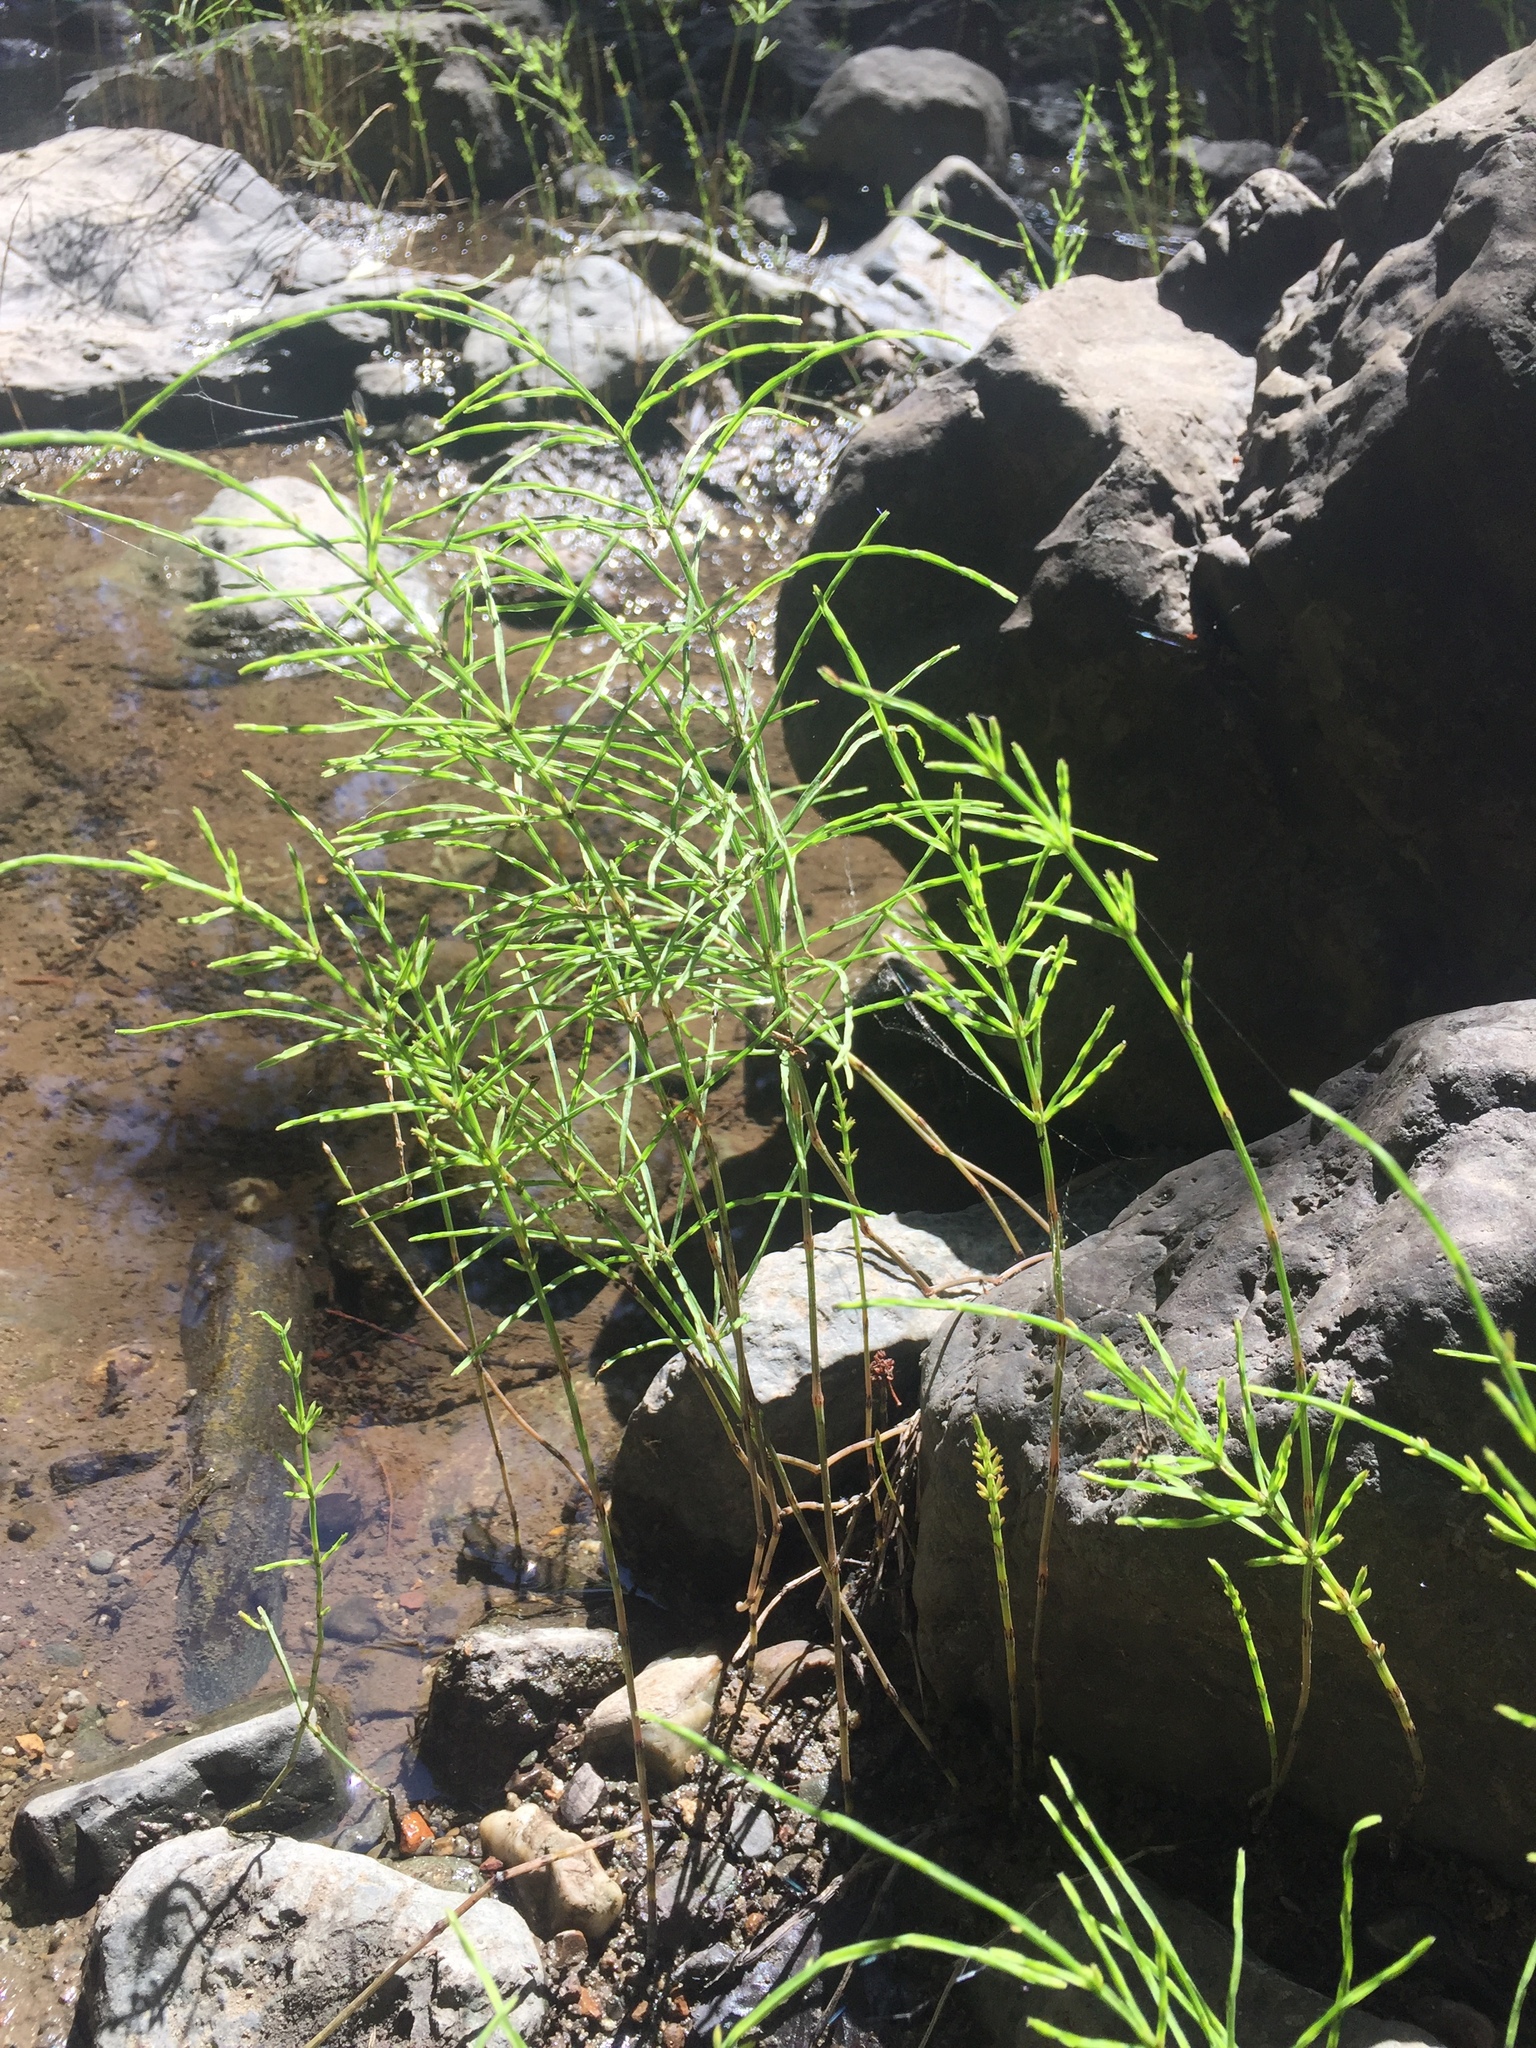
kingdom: Plantae
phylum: Tracheophyta
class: Polypodiopsida
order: Equisetales
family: Equisetaceae
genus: Equisetum
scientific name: Equisetum arvense
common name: Field horsetail
